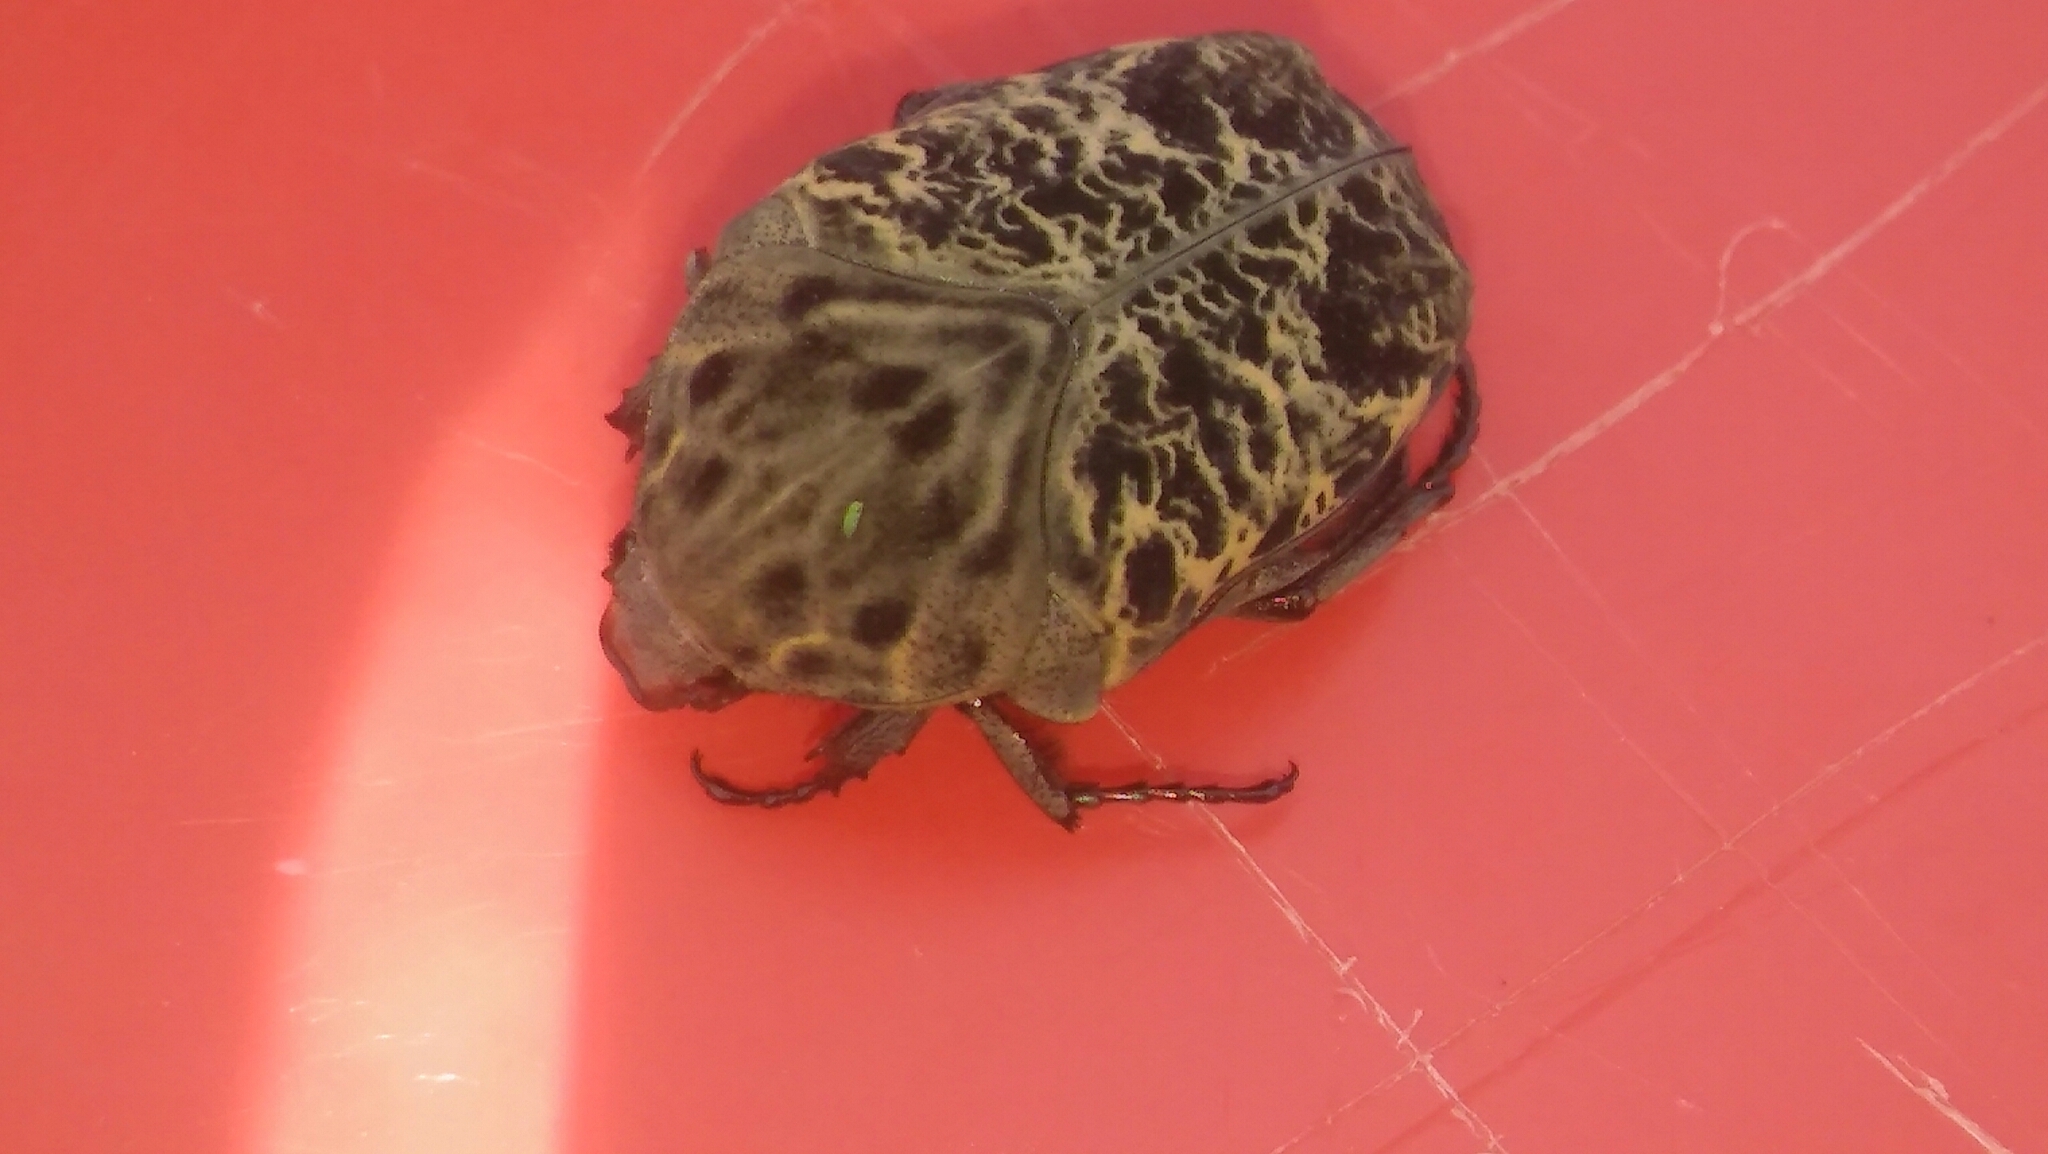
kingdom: Animalia
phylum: Arthropoda
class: Insecta
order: Coleoptera
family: Scarabaeidae
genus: Gymnetis
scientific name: Gymnetis chalcipes
